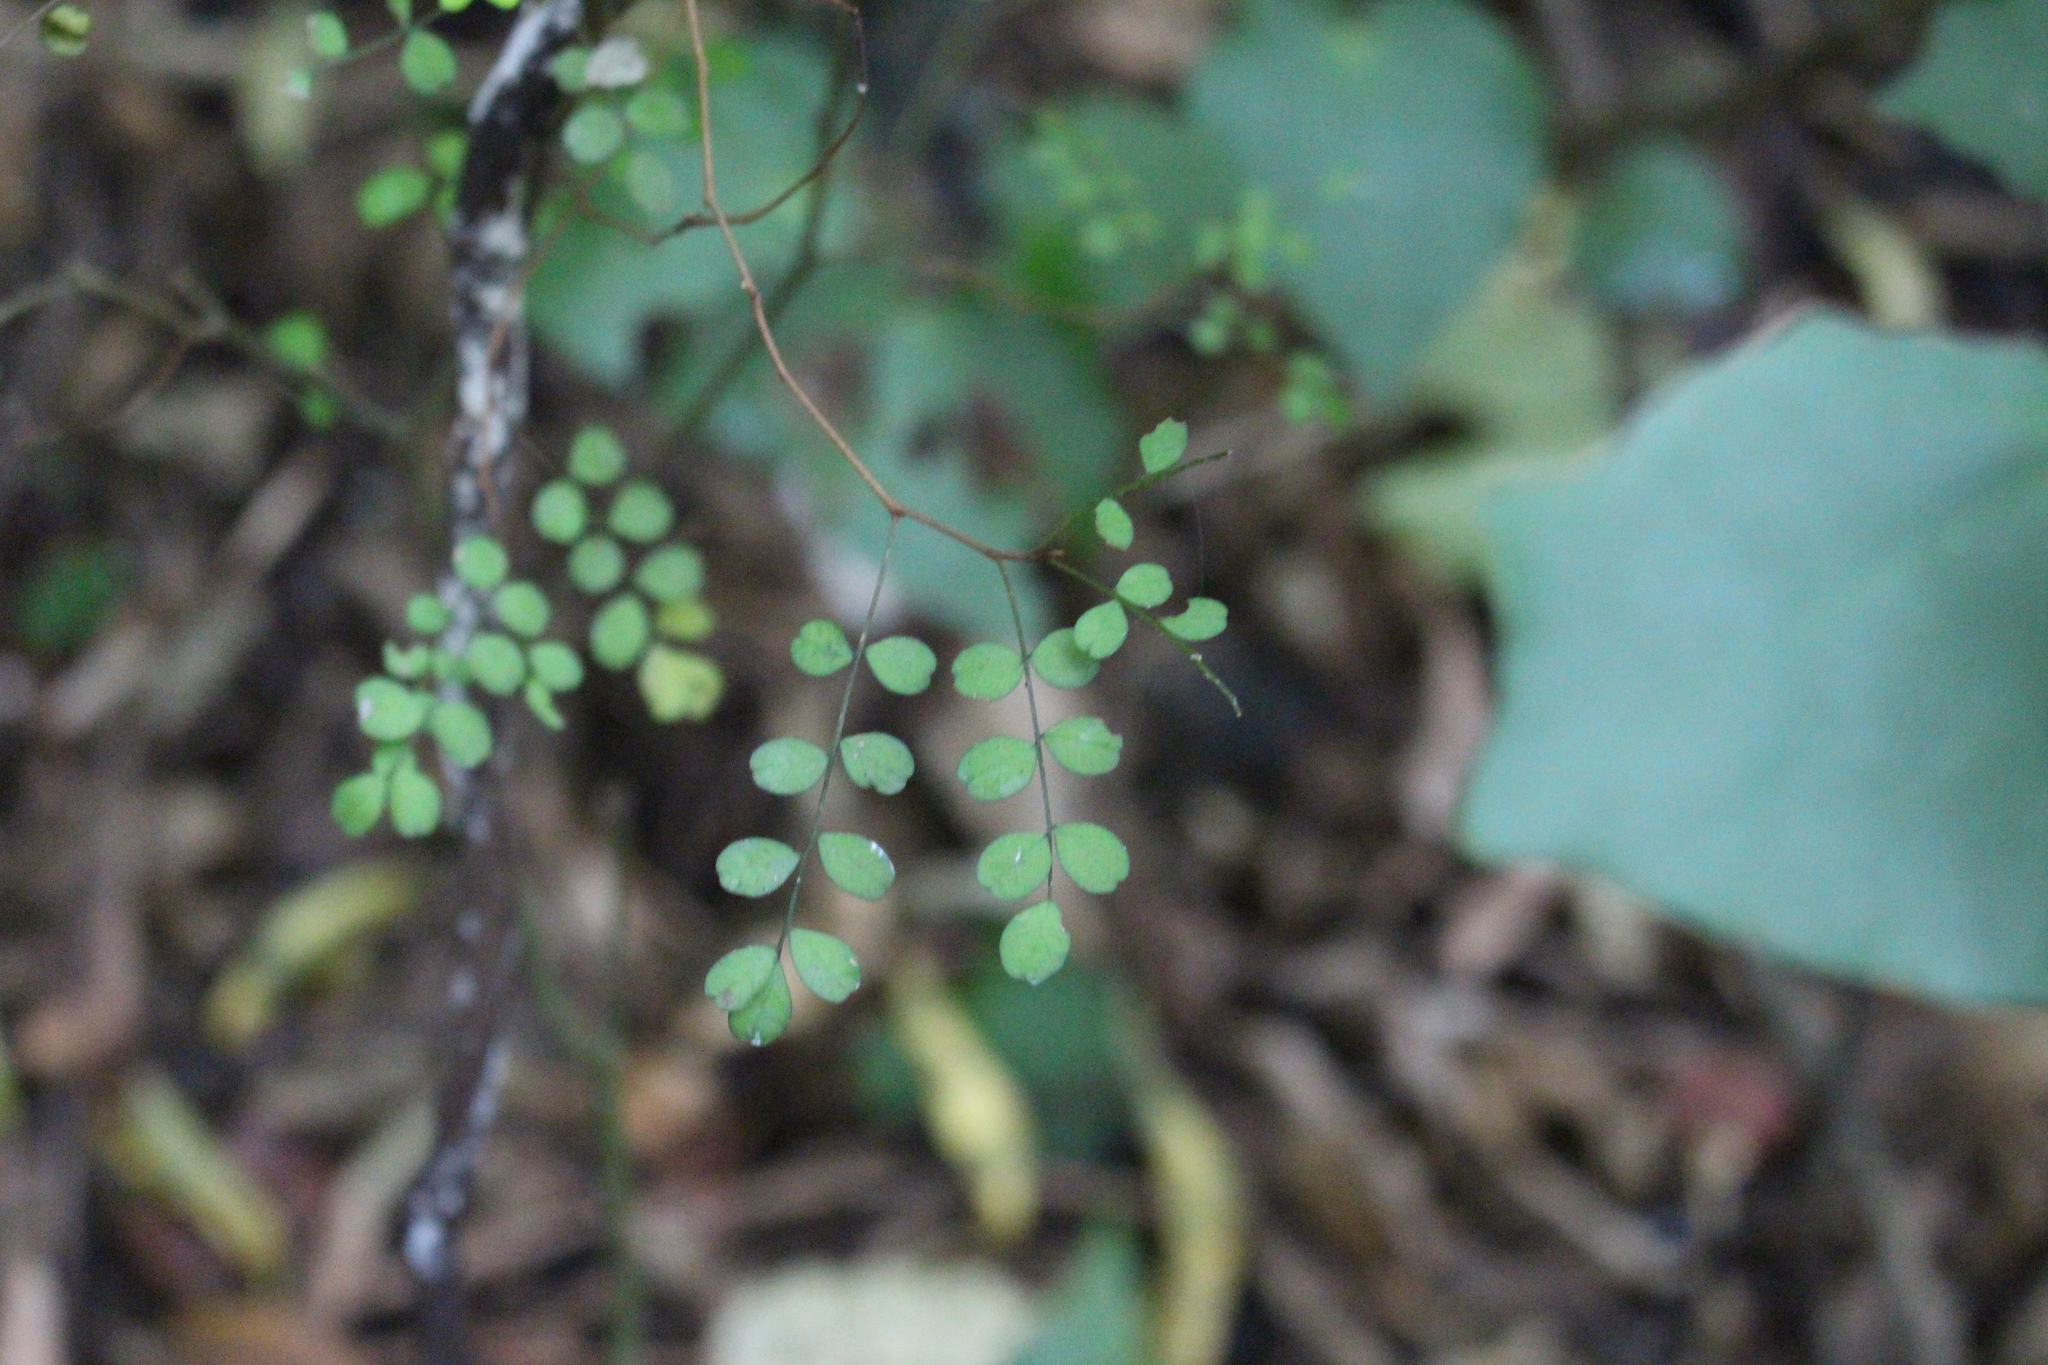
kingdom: Plantae
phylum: Tracheophyta
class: Magnoliopsida
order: Fabales
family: Fabaceae
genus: Sophora
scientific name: Sophora microphylla
